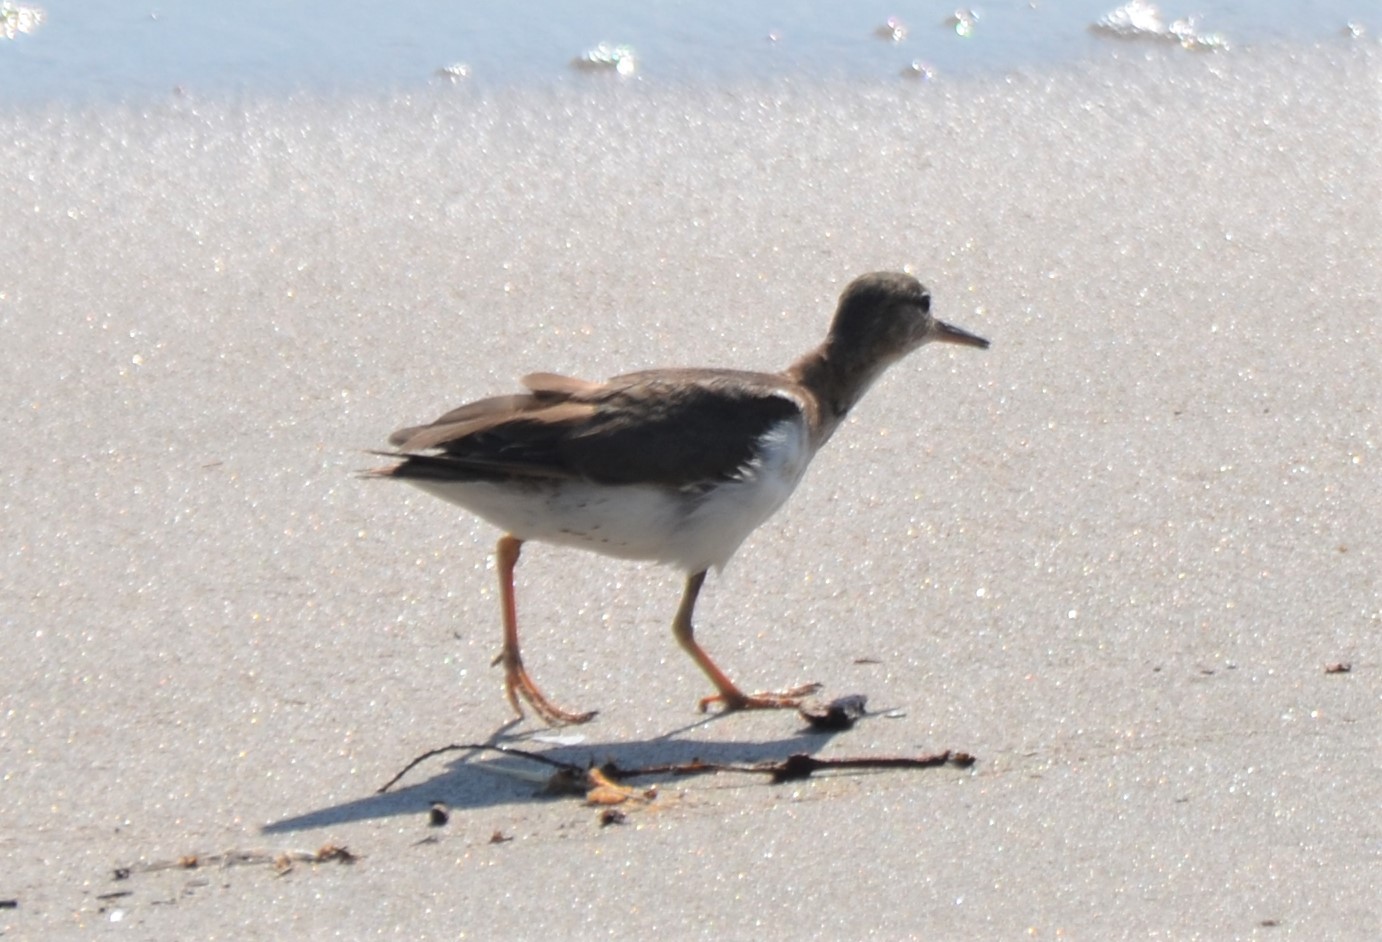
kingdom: Animalia
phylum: Chordata
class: Aves
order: Charadriiformes
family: Scolopacidae
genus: Actitis
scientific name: Actitis macularius
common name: Spotted sandpiper
